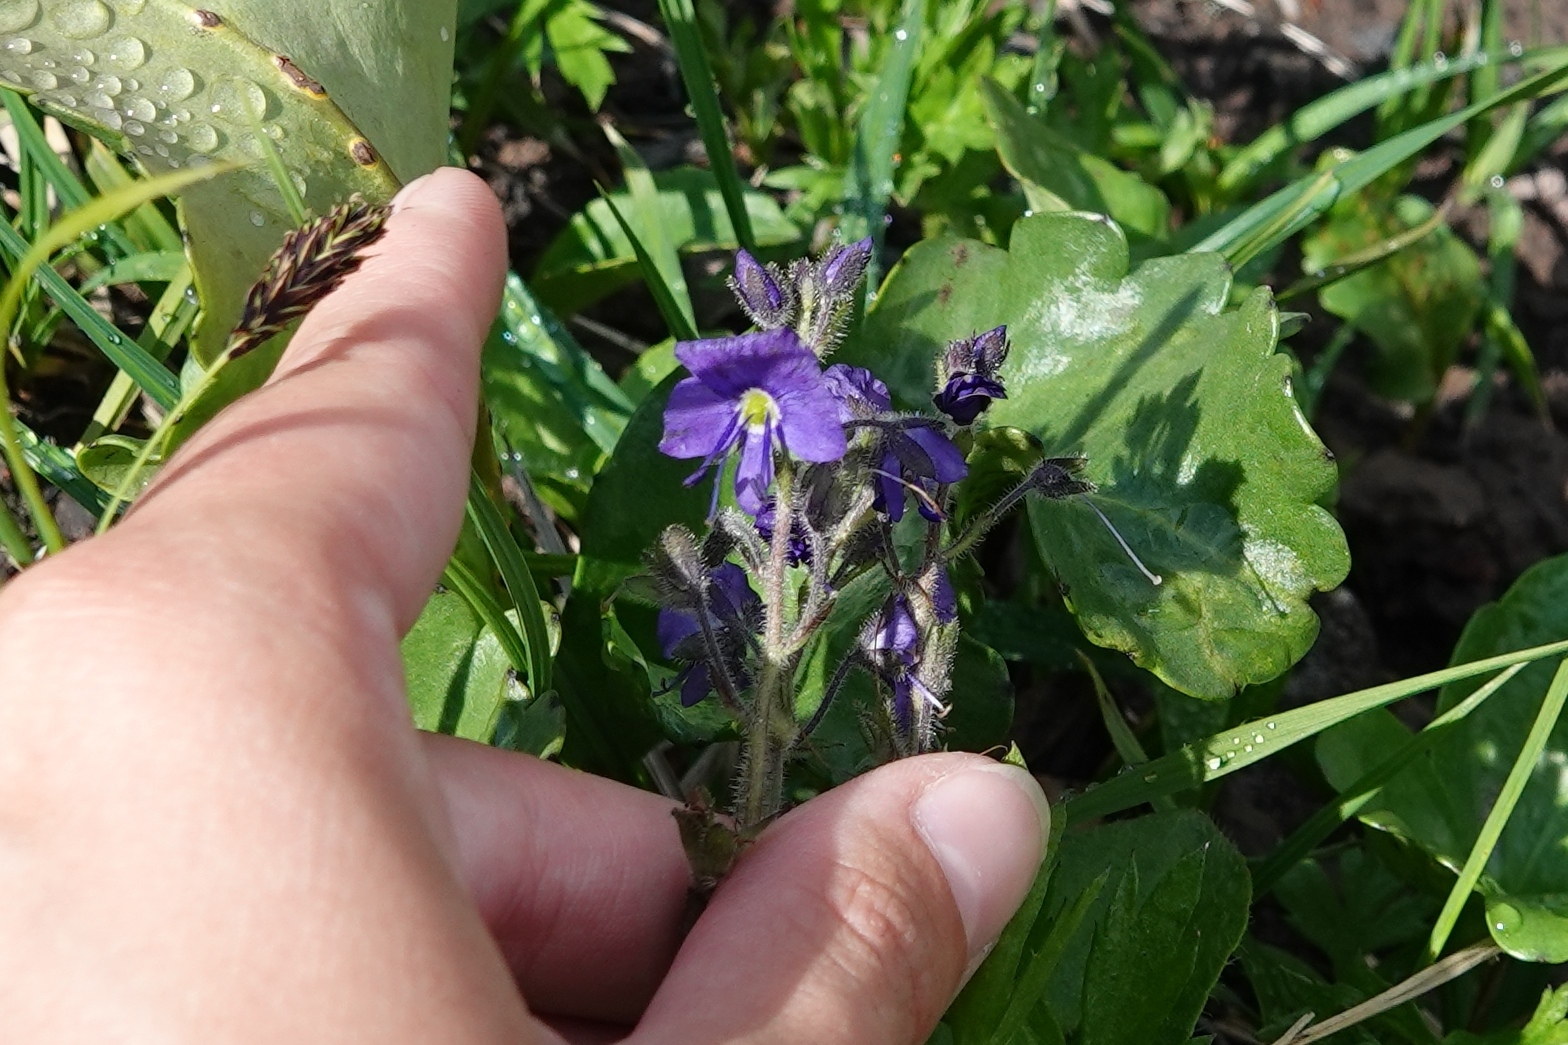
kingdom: Plantae
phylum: Tracheophyta
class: Magnoliopsida
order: Lamiales
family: Plantaginaceae
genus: Veronica
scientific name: Veronica grandiflora
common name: Large-flower speedwell
